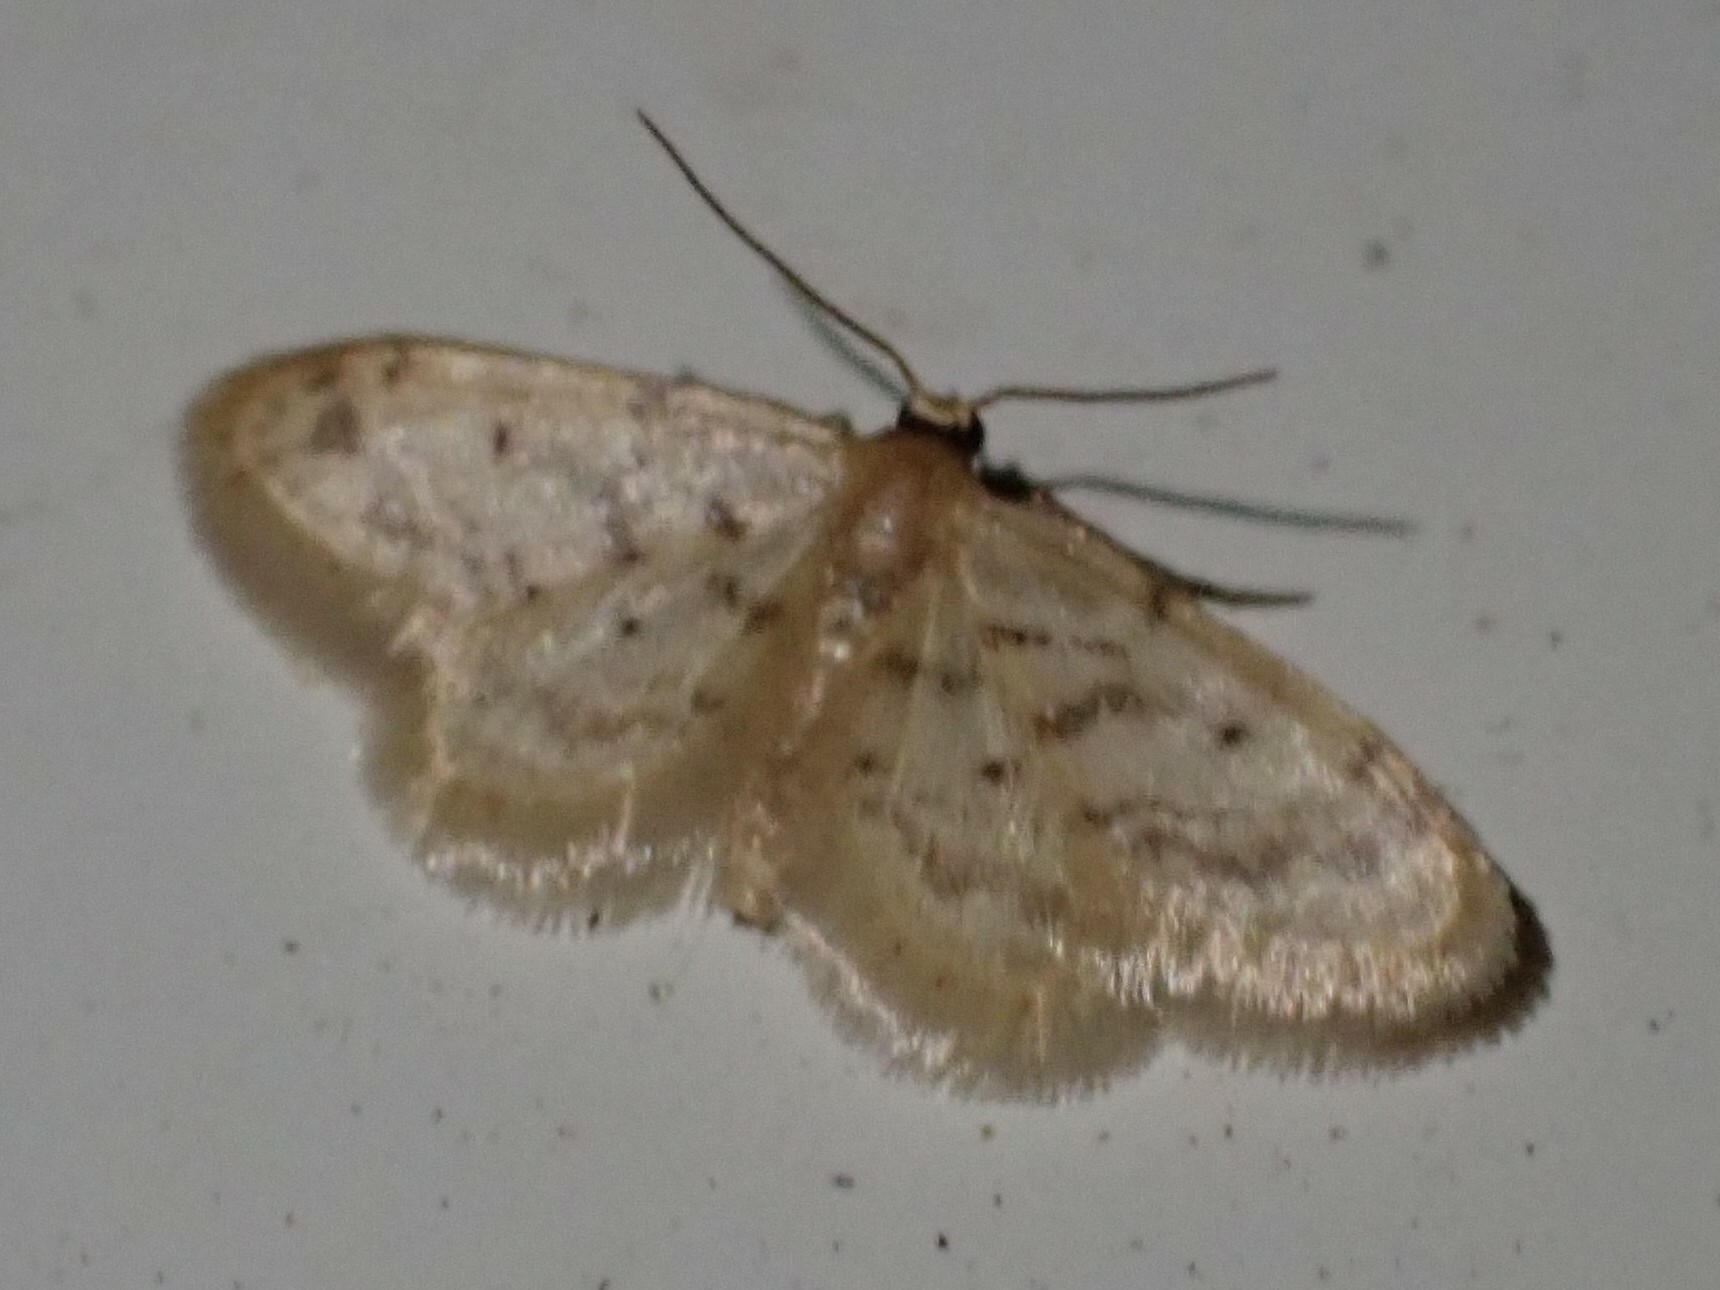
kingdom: Animalia
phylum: Arthropoda
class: Insecta
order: Lepidoptera
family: Geometridae
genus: Idaea
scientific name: Idaea bonifata
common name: Fortunate wave
